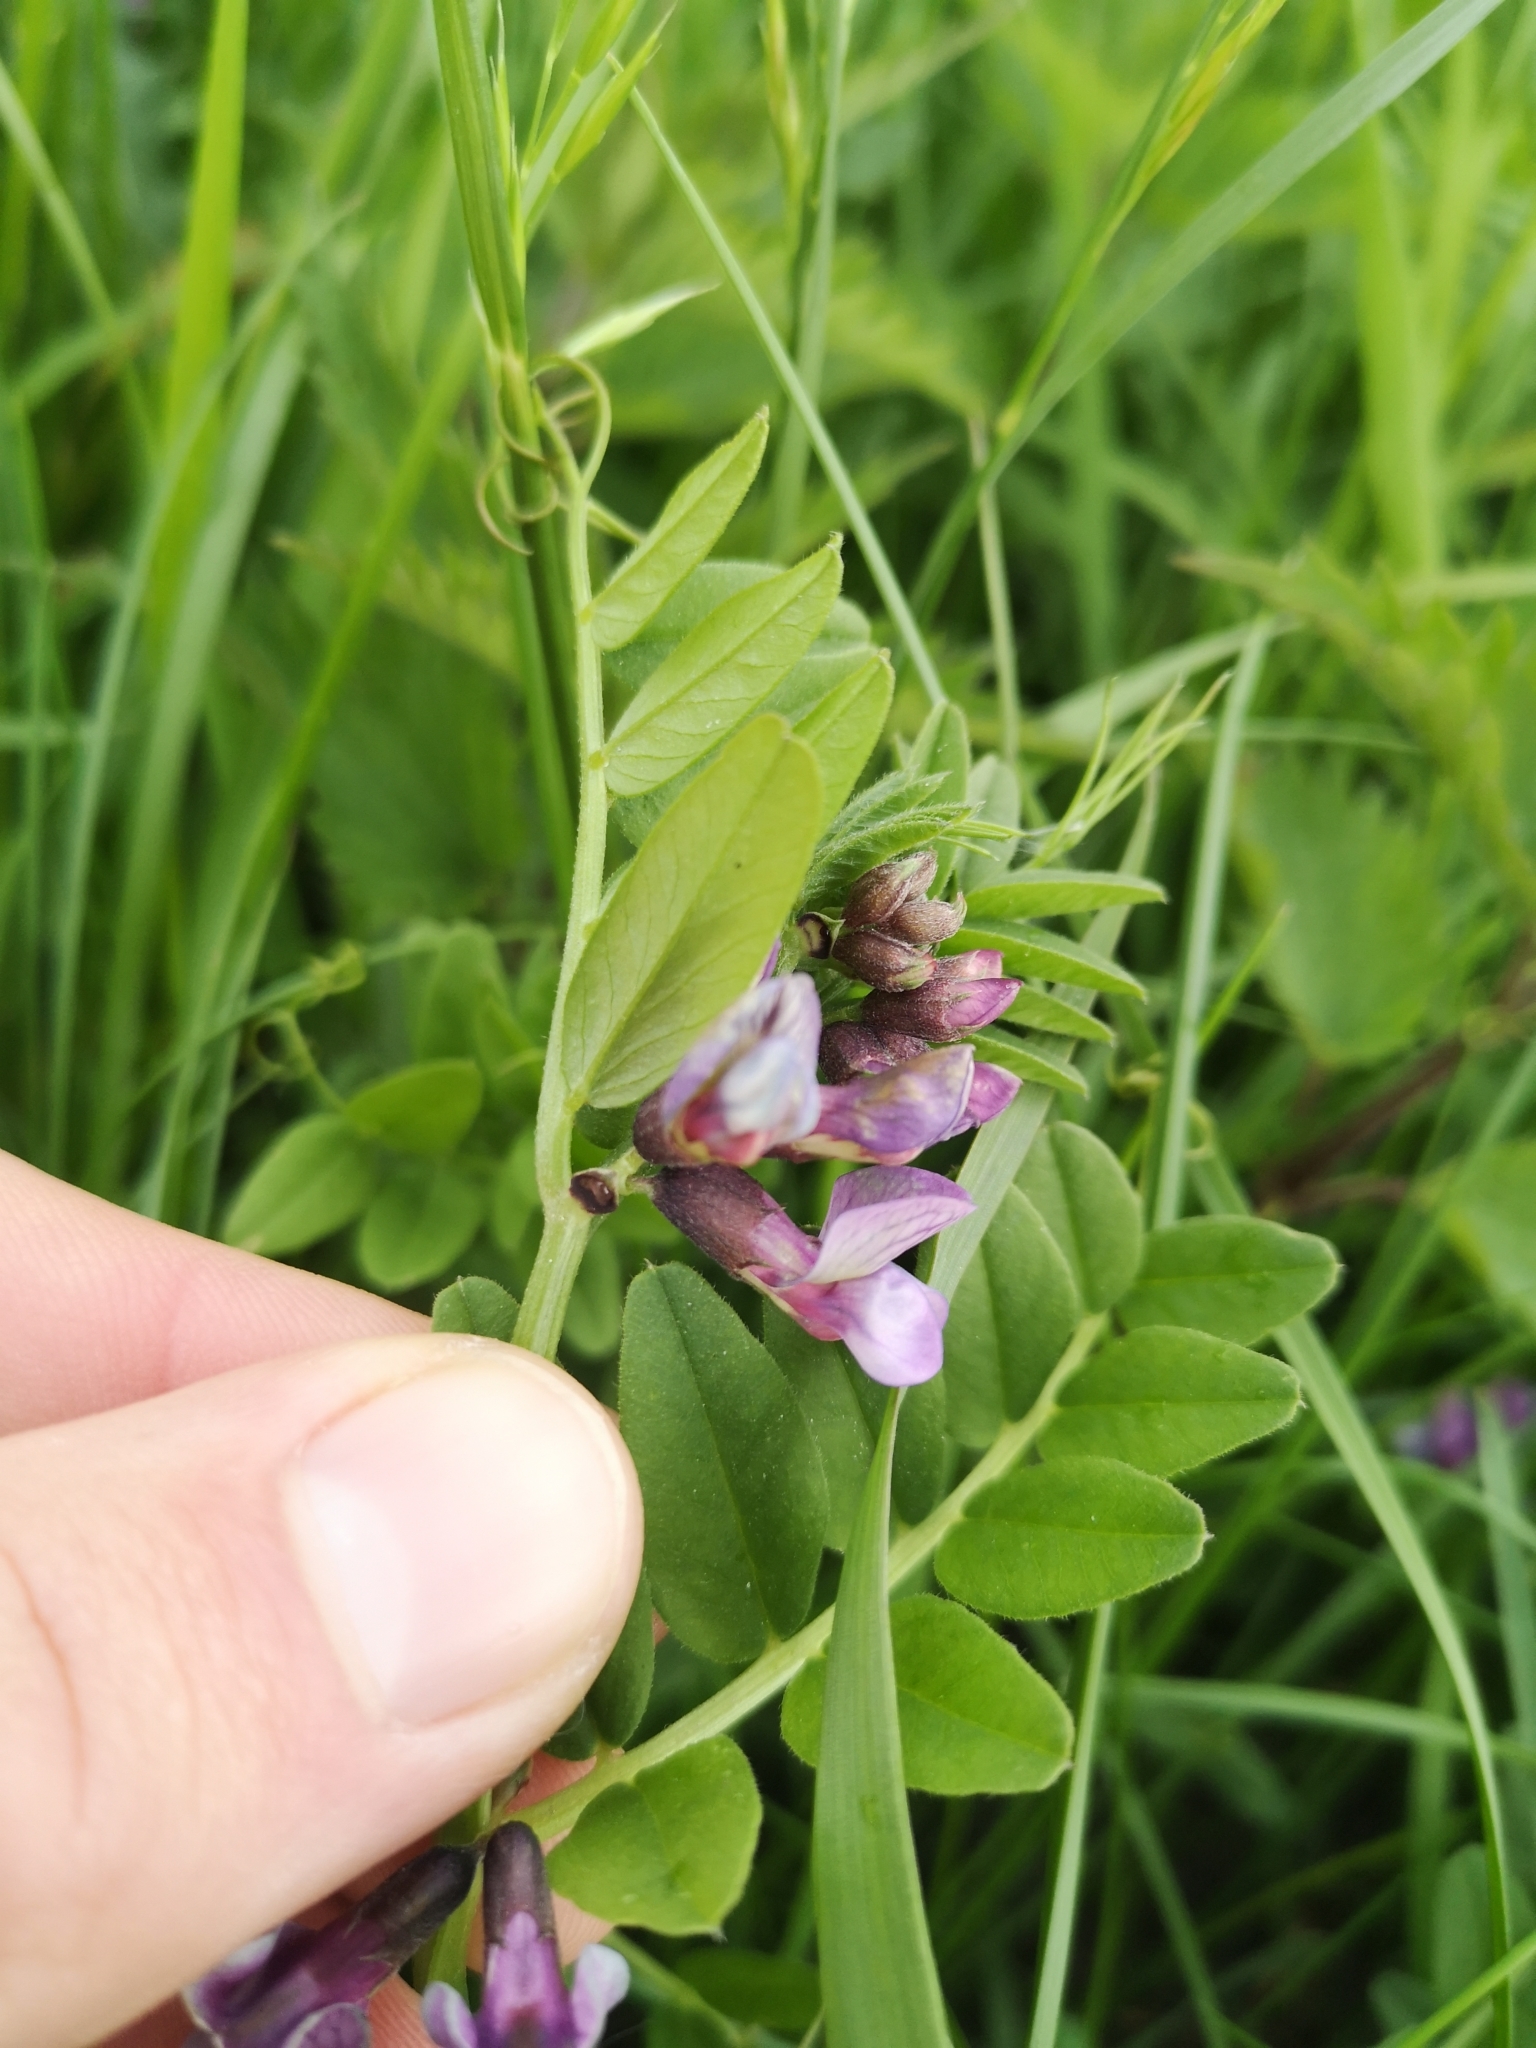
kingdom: Plantae
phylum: Tracheophyta
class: Magnoliopsida
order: Fabales
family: Fabaceae
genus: Vicia
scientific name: Vicia sepium
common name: Bush vetch
